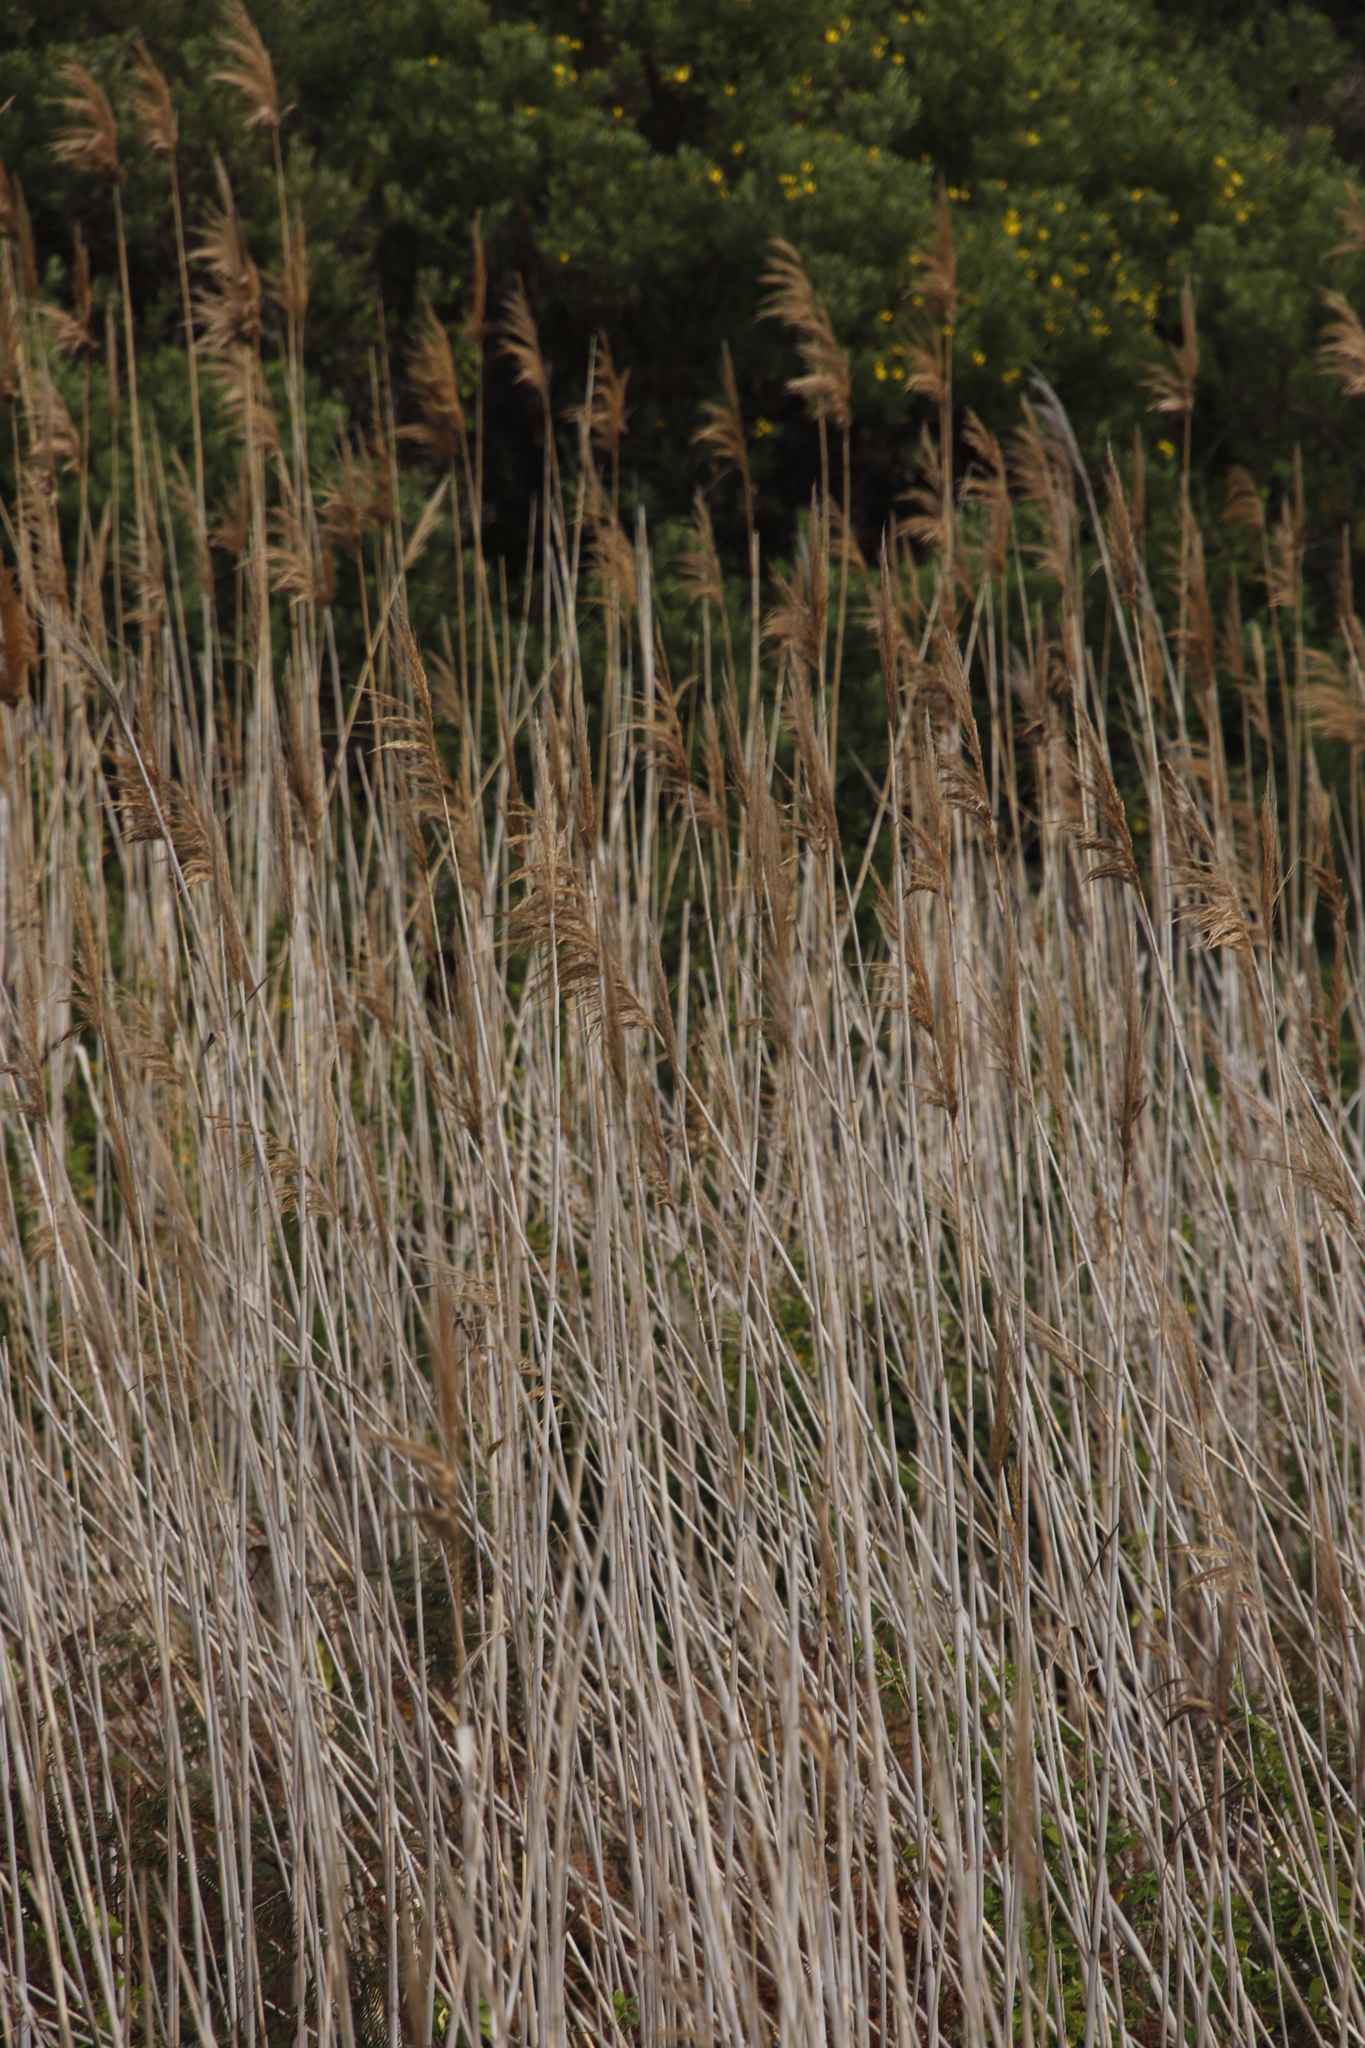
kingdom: Plantae
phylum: Tracheophyta
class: Liliopsida
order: Poales
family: Poaceae
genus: Phragmites
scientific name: Phragmites australis
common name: Common reed
